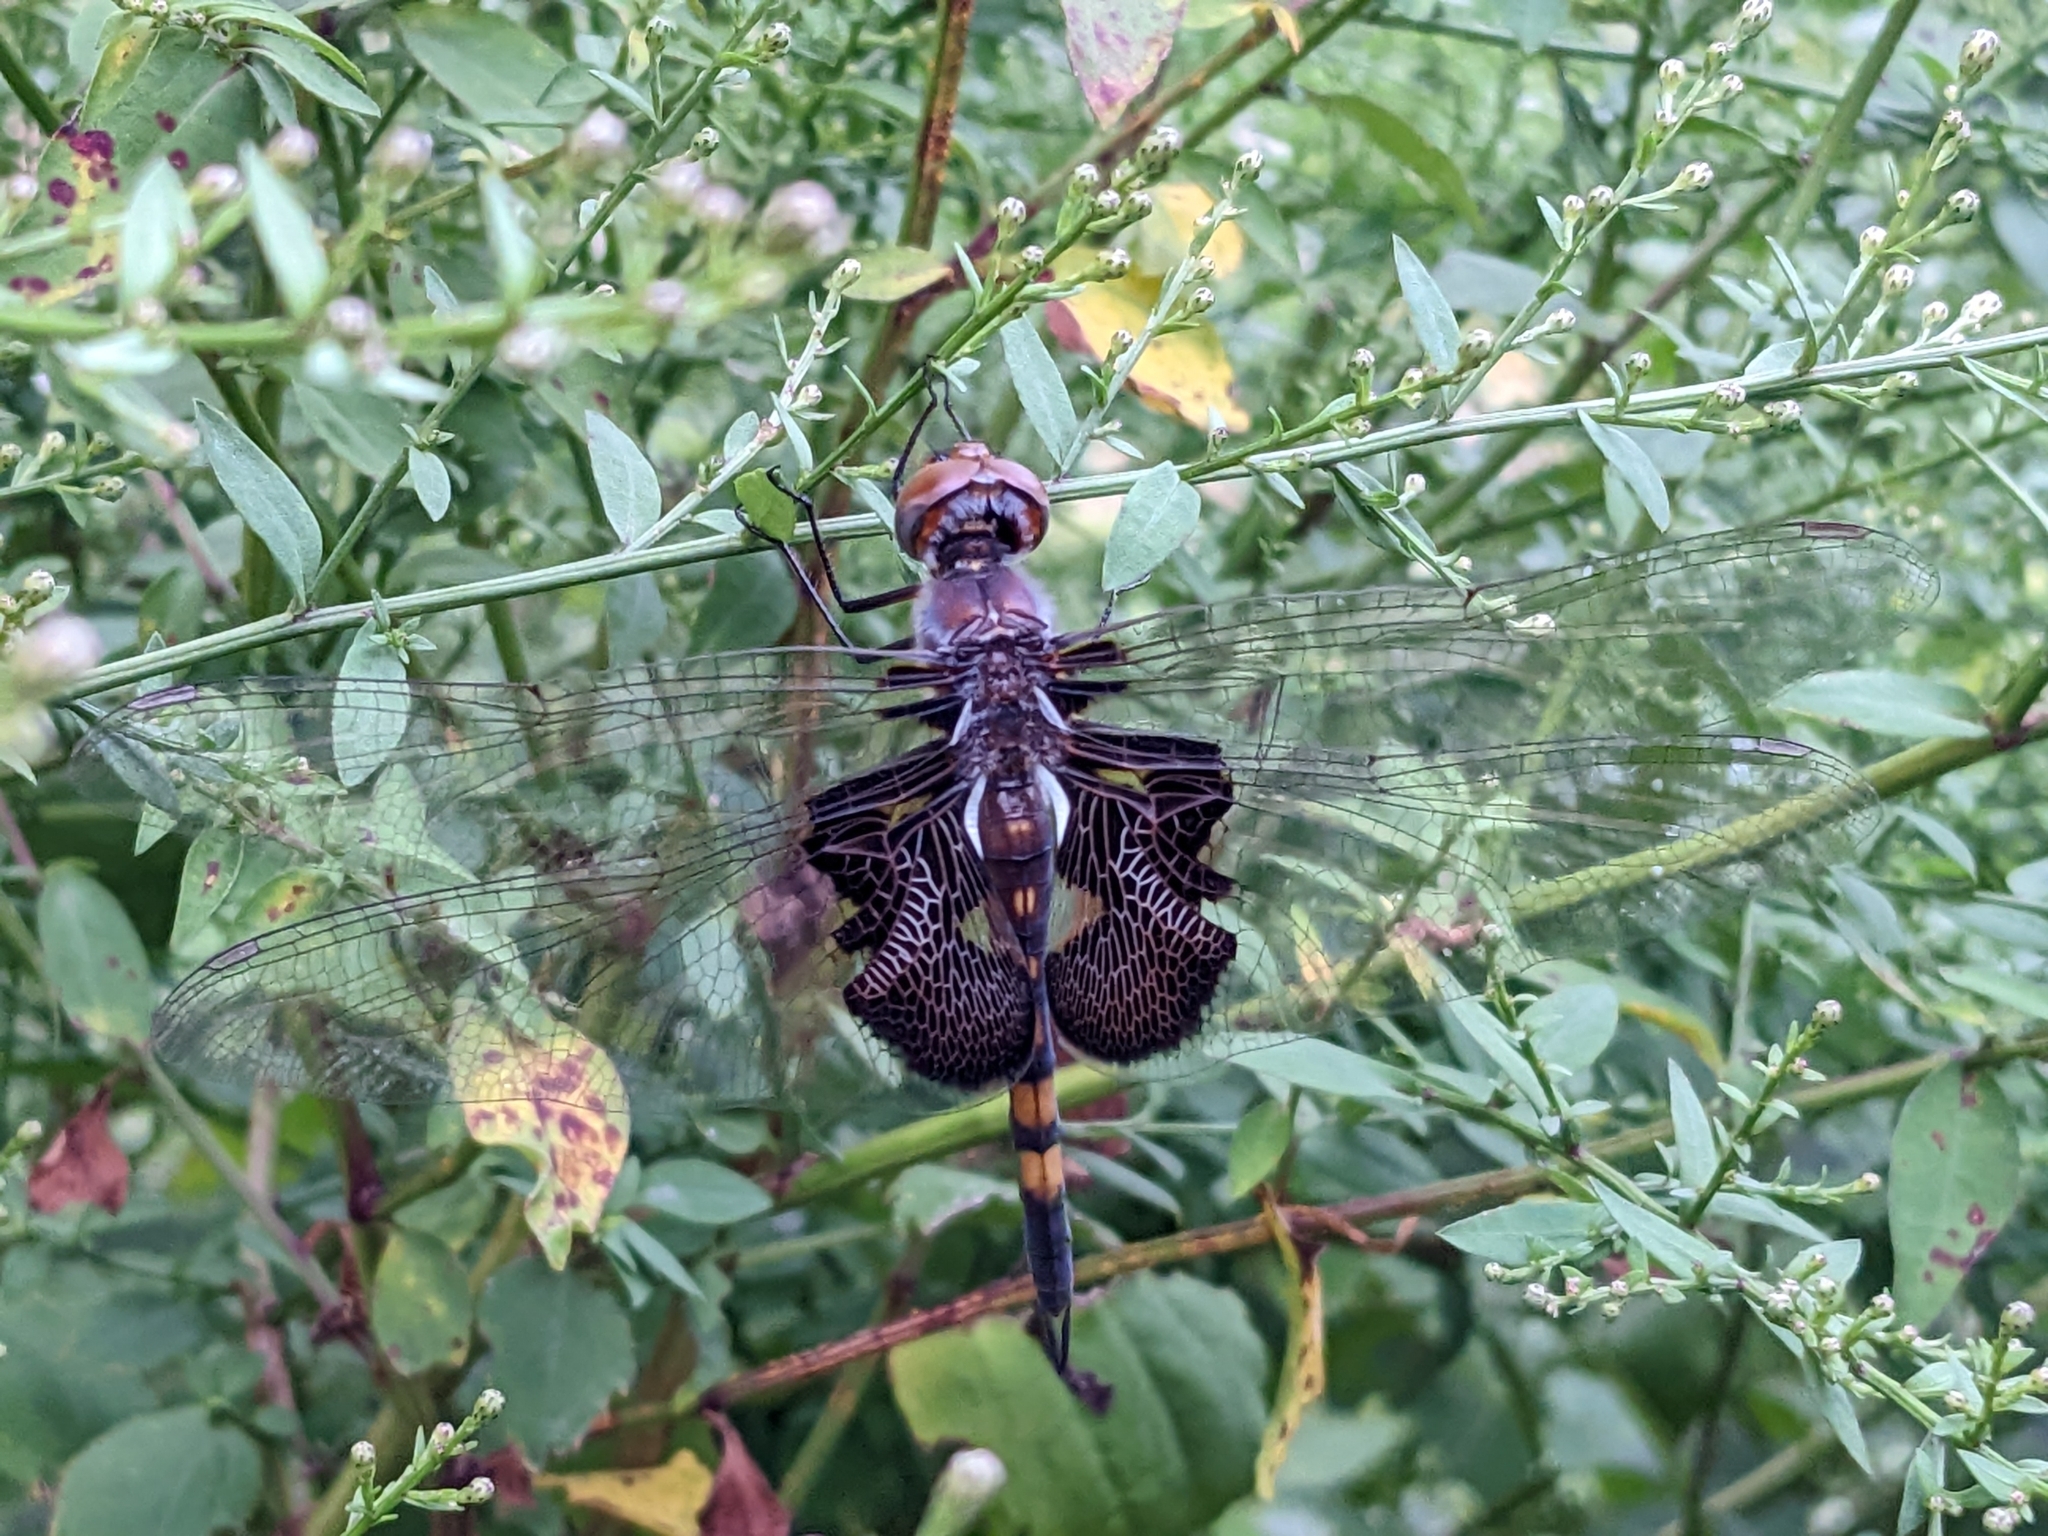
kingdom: Animalia
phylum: Arthropoda
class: Insecta
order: Odonata
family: Libellulidae
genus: Tramea
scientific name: Tramea lacerata
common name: Black saddlebags
